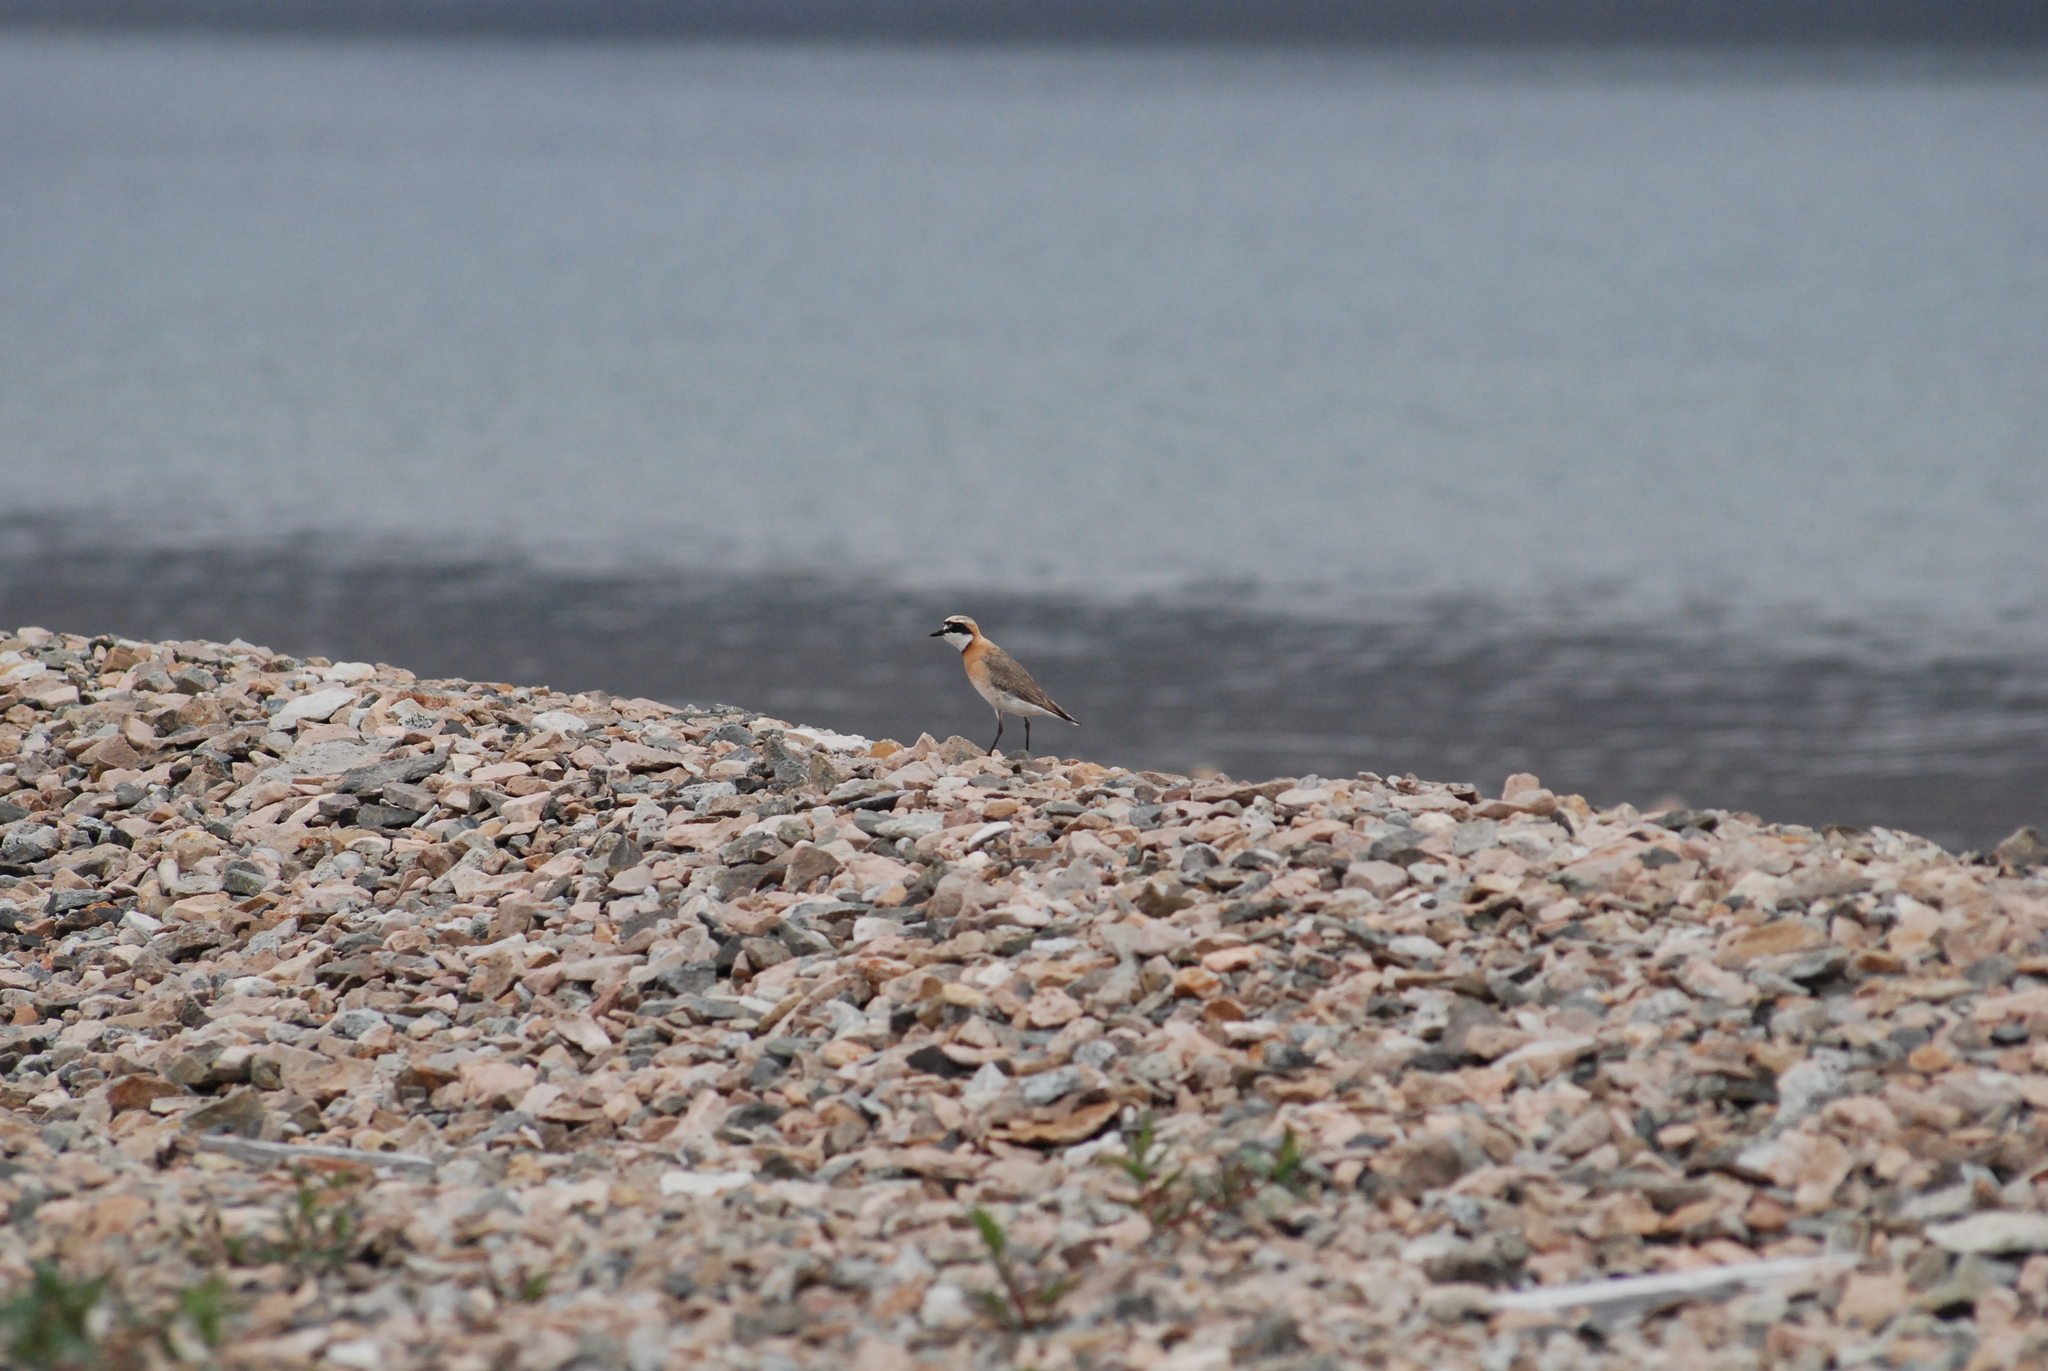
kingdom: Animalia
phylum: Chordata
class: Aves
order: Charadriiformes
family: Charadriidae
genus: Anarhynchus
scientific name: Anarhynchus
